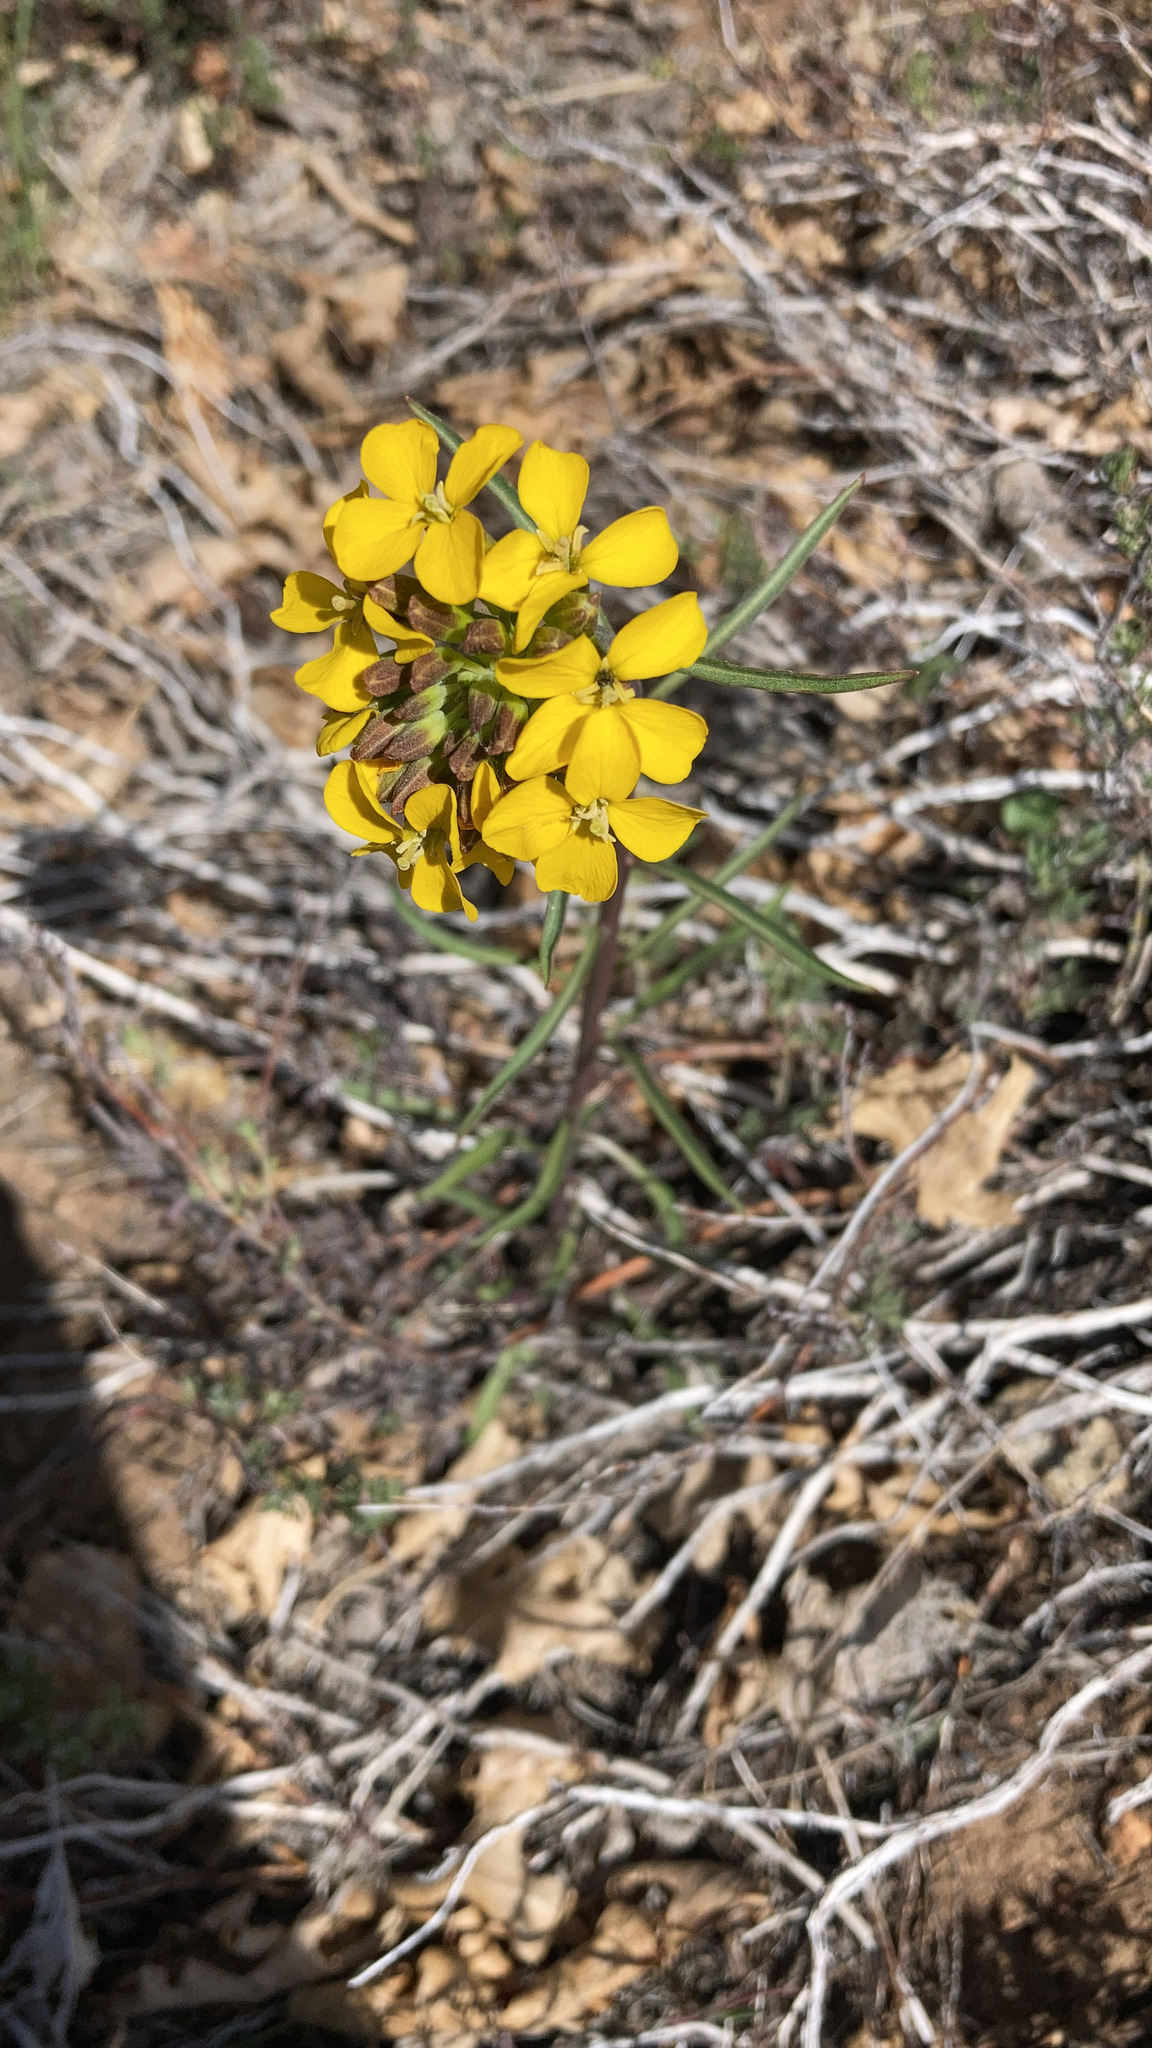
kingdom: Plantae
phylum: Tracheophyta
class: Magnoliopsida
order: Brassicales
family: Brassicaceae
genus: Erysimum
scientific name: Erysimum capitatum
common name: Western wallflower
